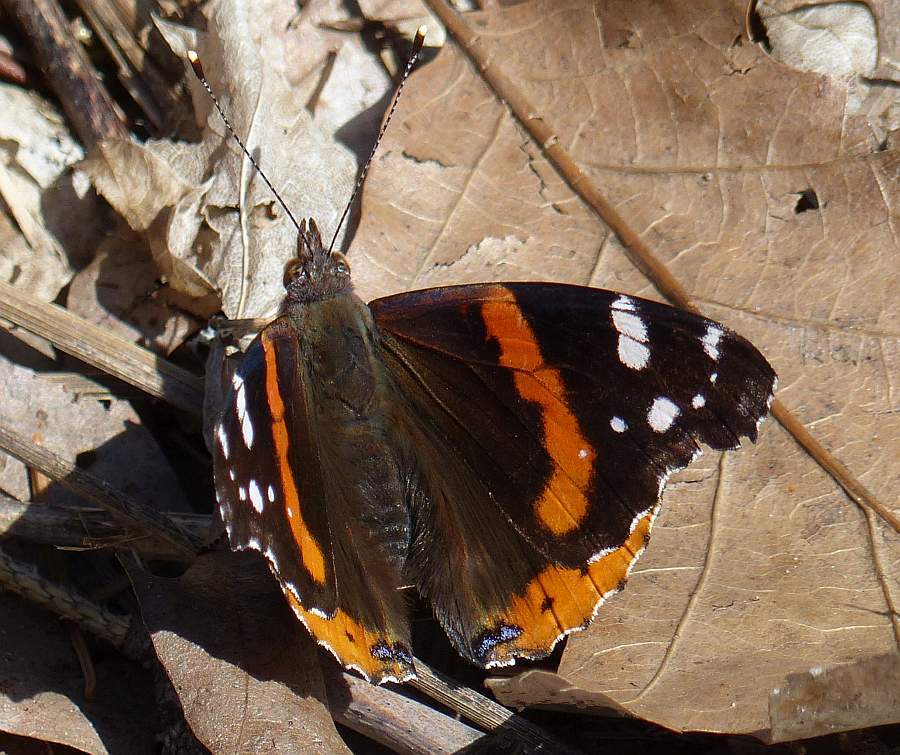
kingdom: Animalia
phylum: Arthropoda
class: Insecta
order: Lepidoptera
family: Nymphalidae
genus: Vanessa
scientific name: Vanessa atalanta
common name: Red admiral
